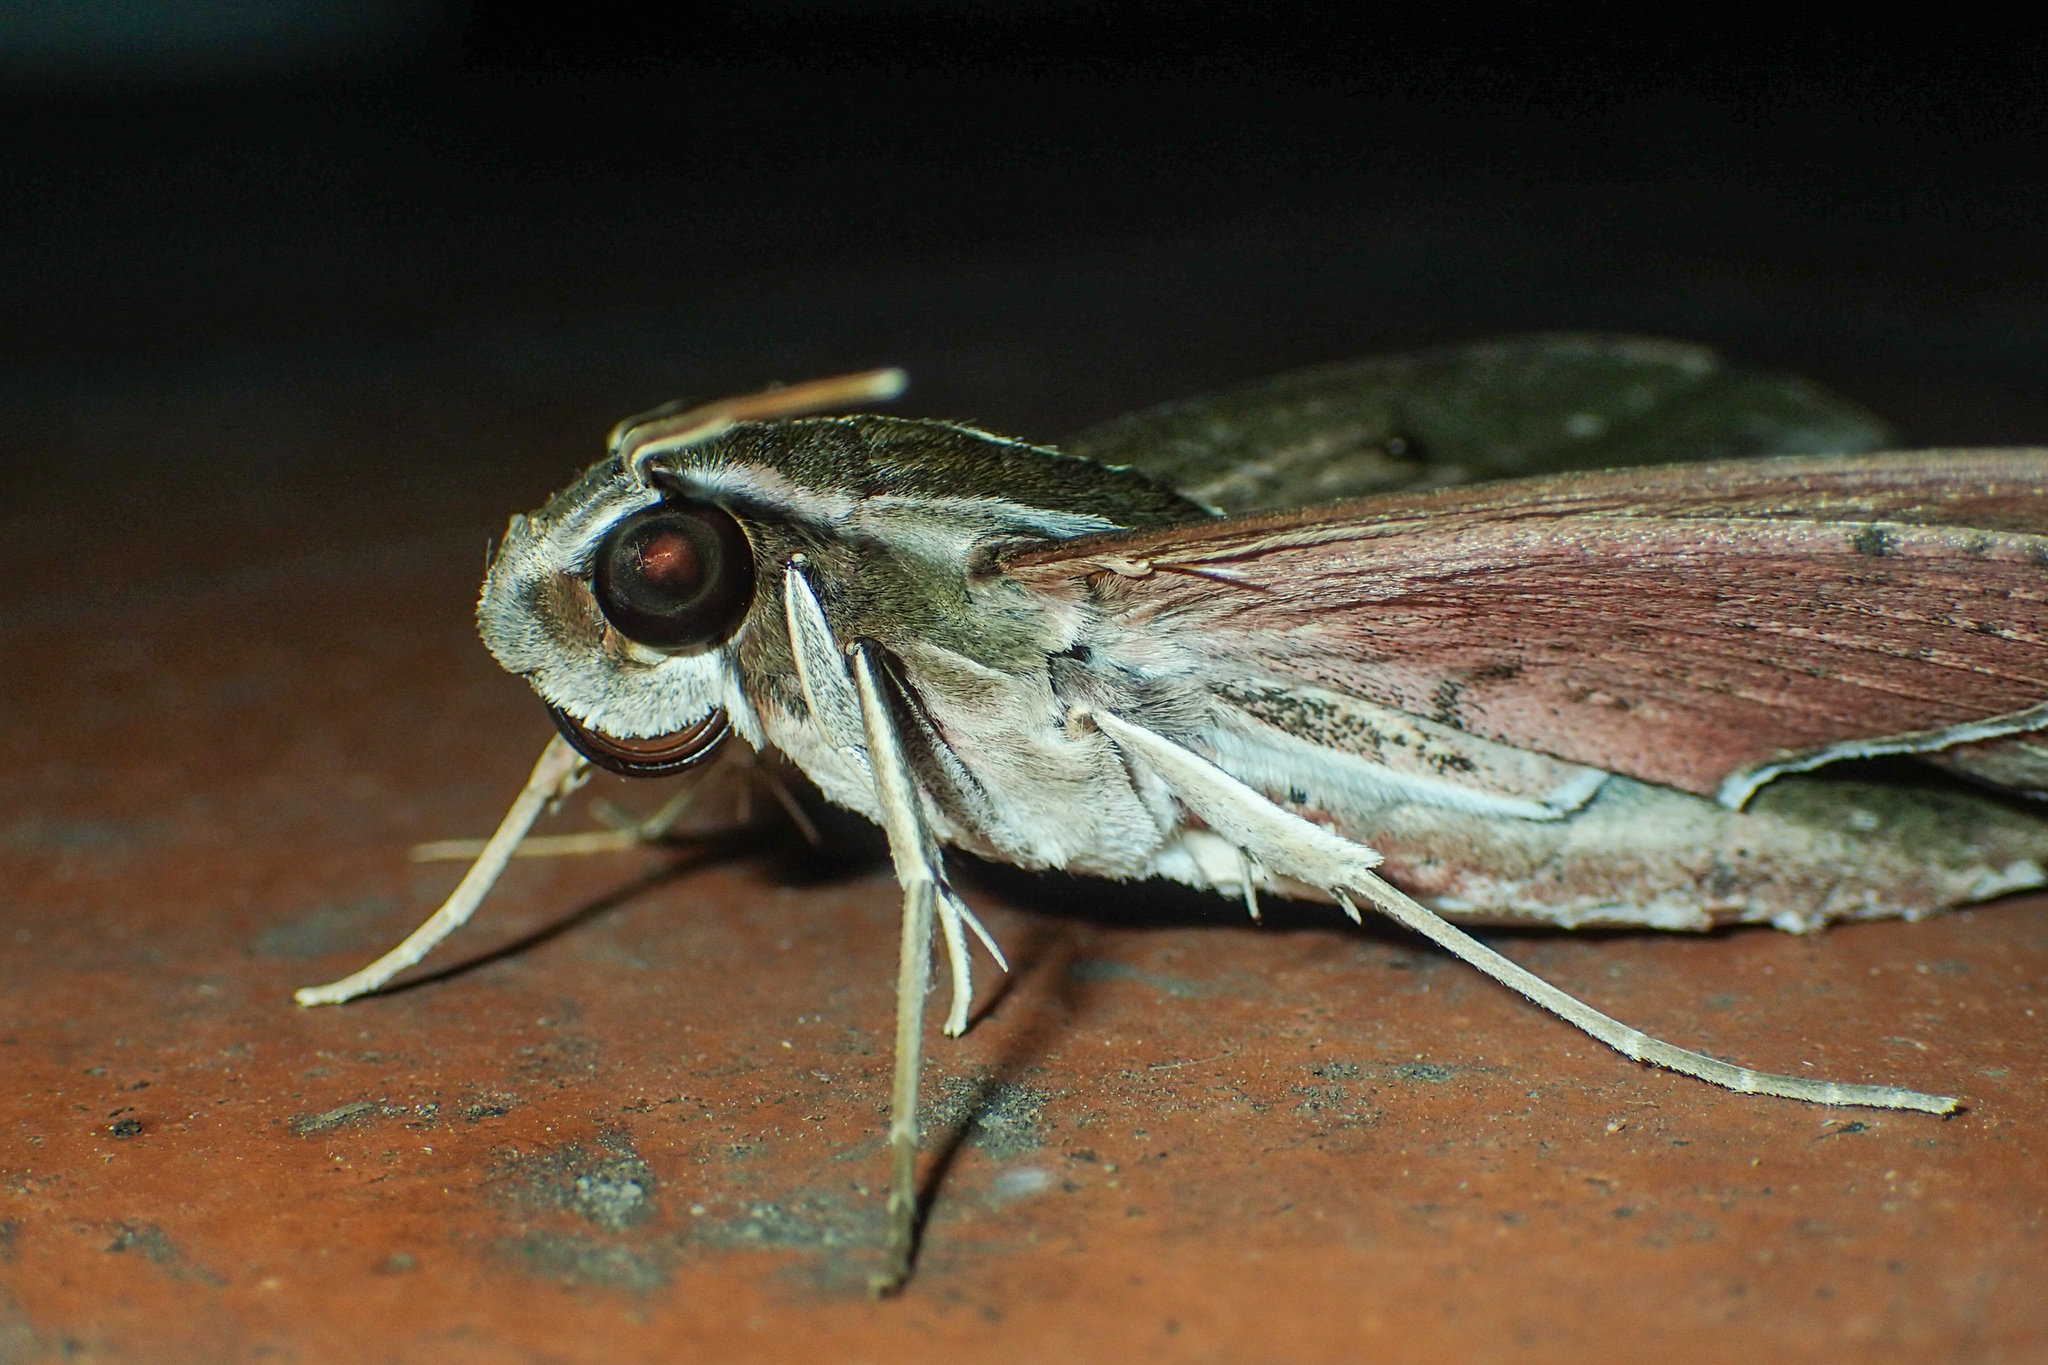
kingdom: Animalia
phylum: Arthropoda
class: Insecta
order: Lepidoptera
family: Sphingidae
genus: Elibia
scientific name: Elibia dolichus
